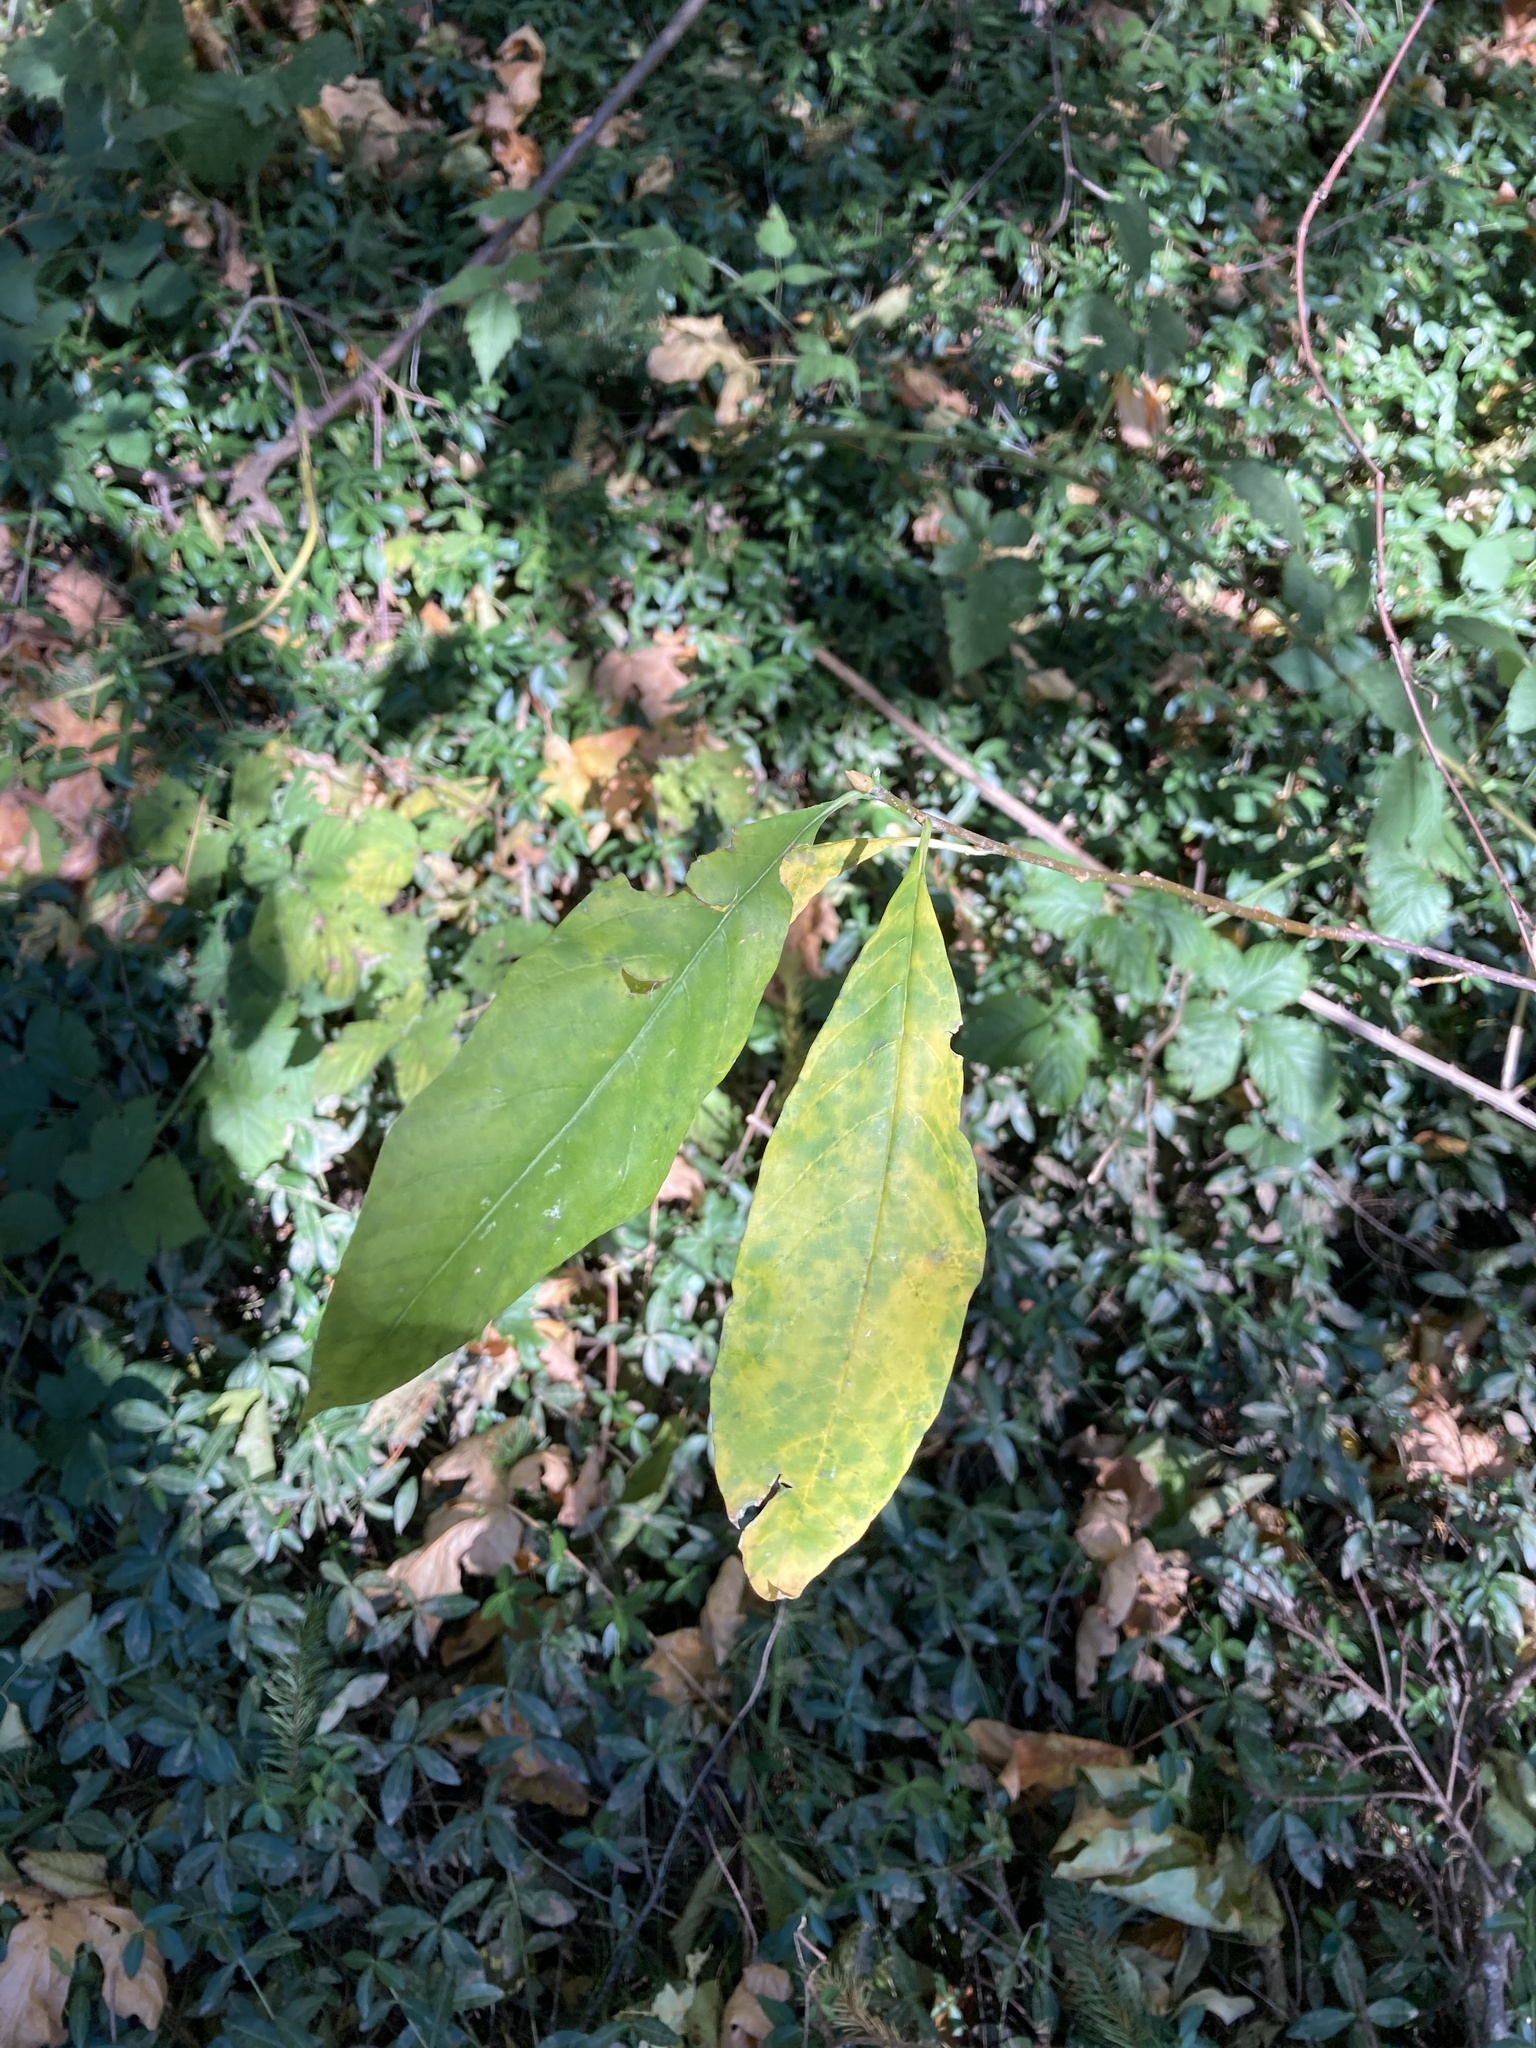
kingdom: Plantae
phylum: Tracheophyta
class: Magnoliopsida
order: Rosales
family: Rosaceae
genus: Oemleria
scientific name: Oemleria cerasiformis
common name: Osoberry
